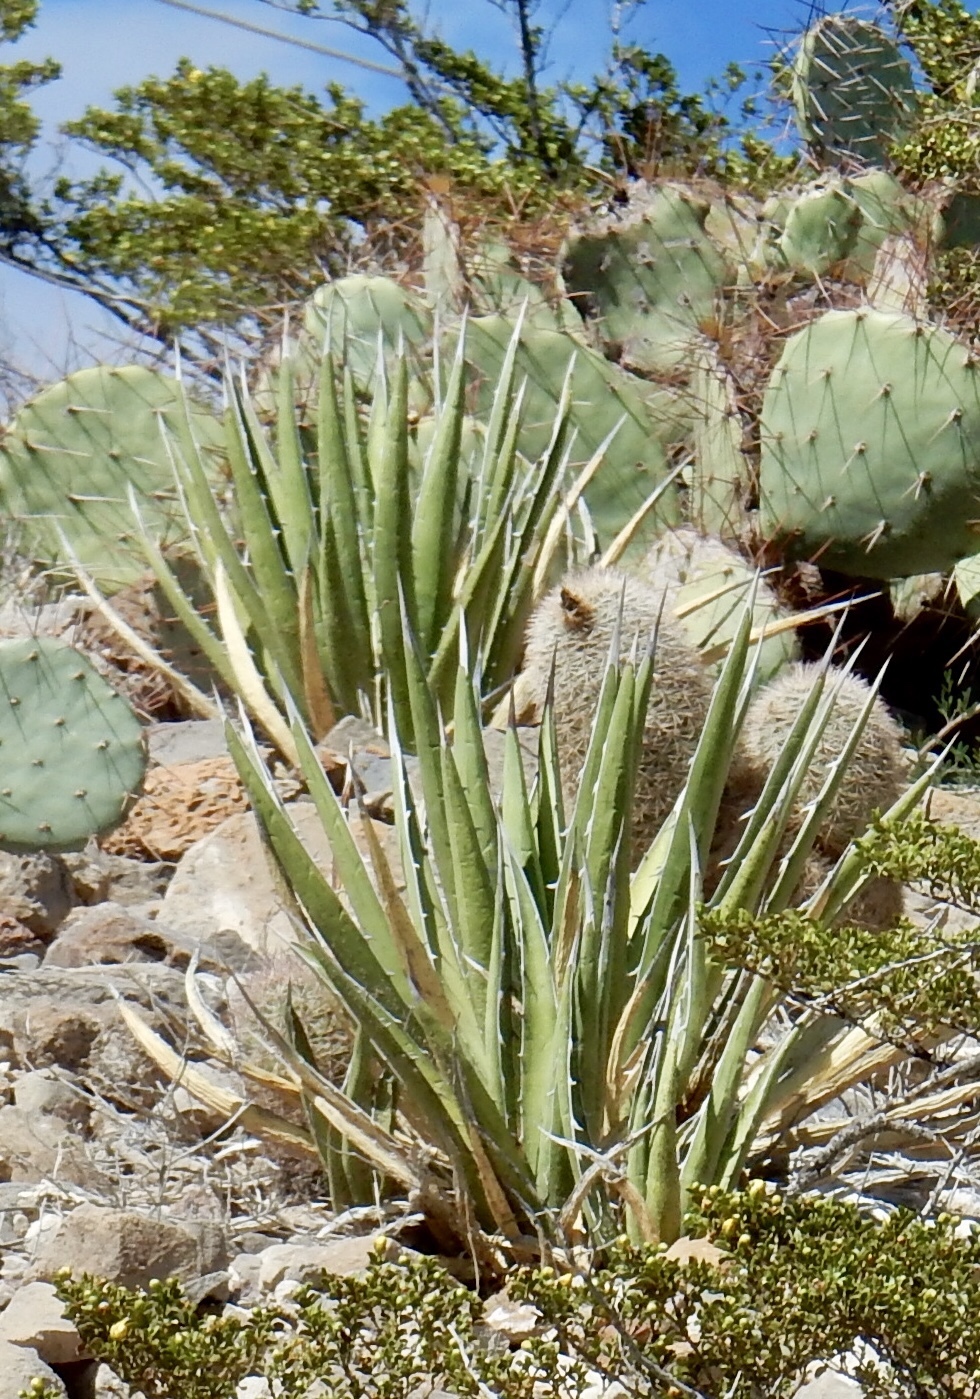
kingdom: Plantae
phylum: Tracheophyta
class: Liliopsida
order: Asparagales
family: Asparagaceae
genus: Agave
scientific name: Agave lechuguilla
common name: Lecheguilla agave
